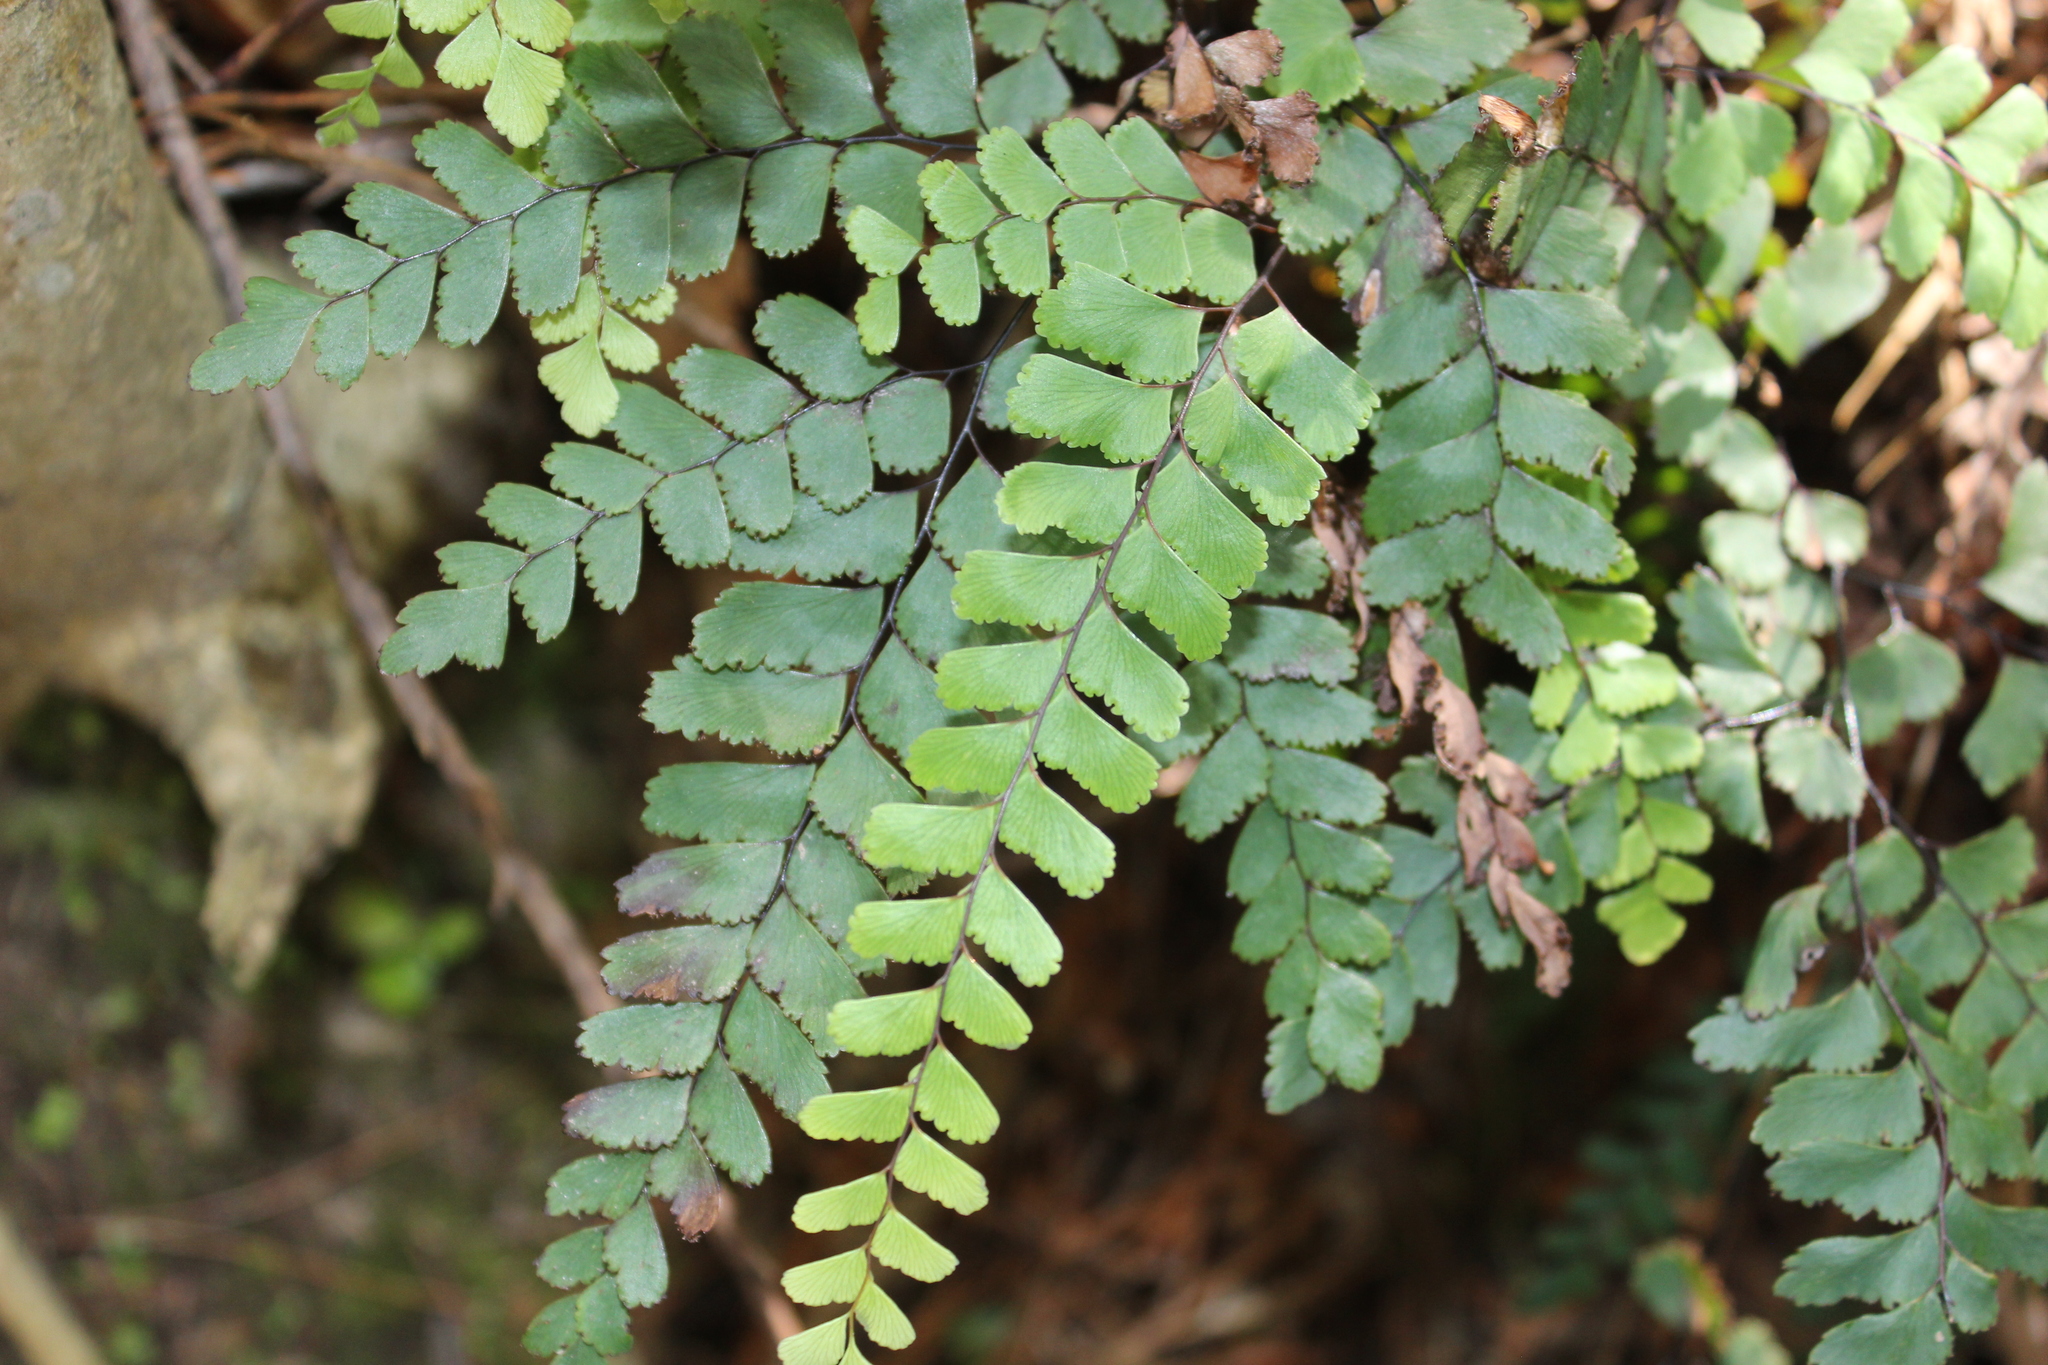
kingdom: Plantae
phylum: Tracheophyta
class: Polypodiopsida
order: Polypodiales
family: Pteridaceae
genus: Adiantum
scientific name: Adiantum cunninghamii
